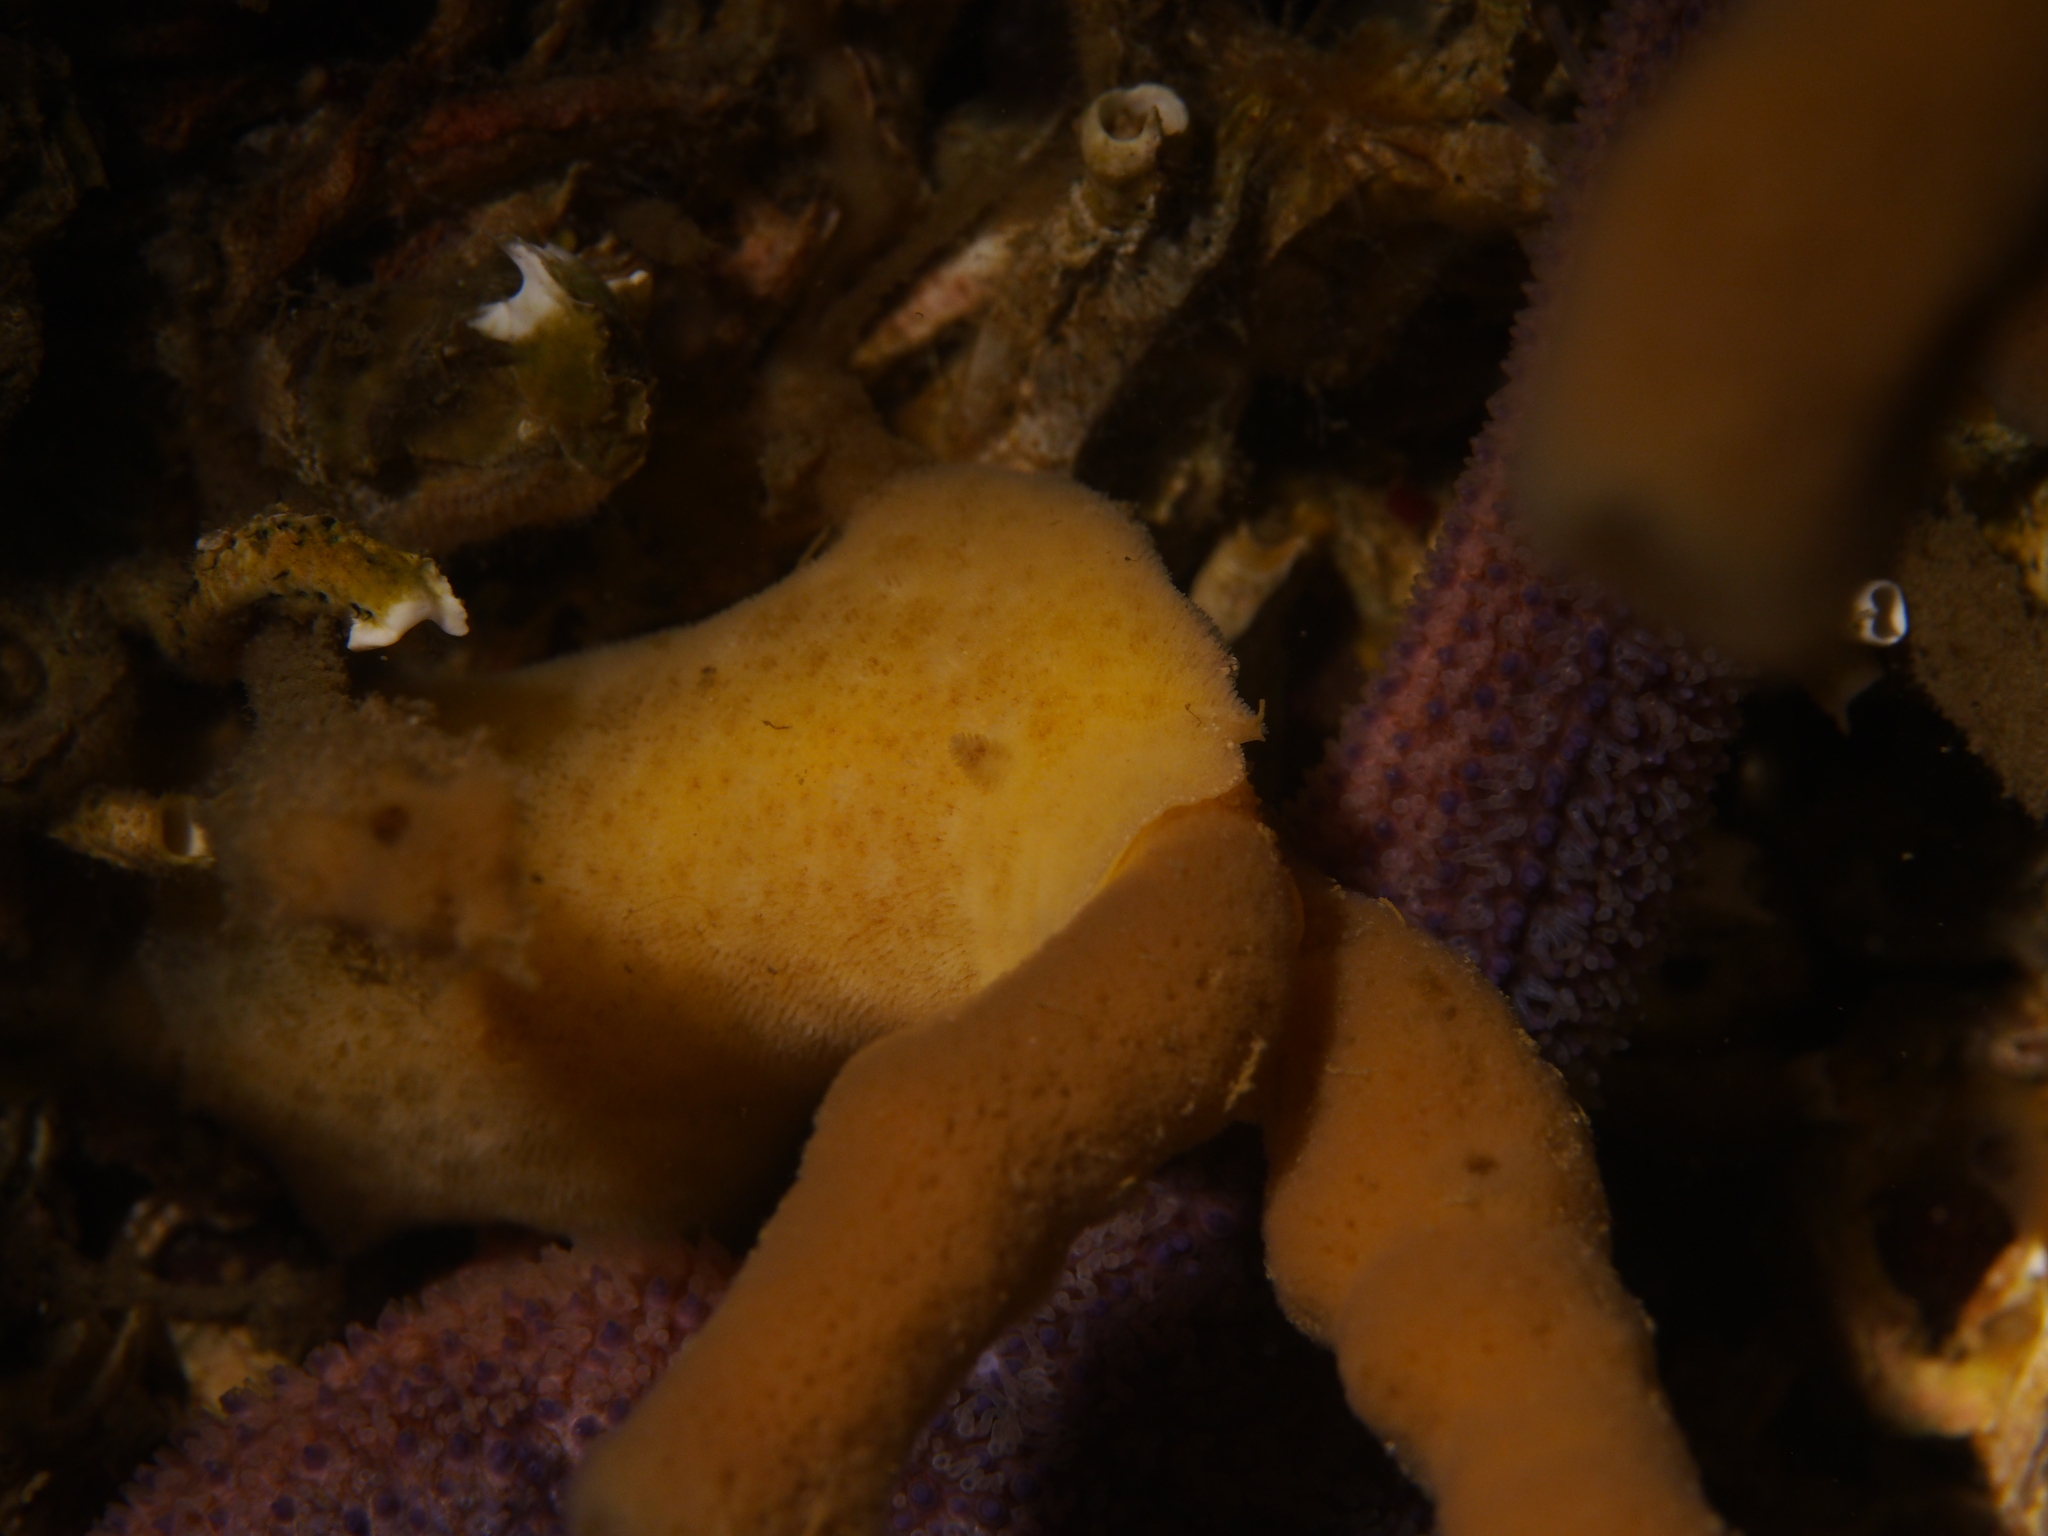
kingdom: Animalia
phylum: Mollusca
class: Gastropoda
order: Nudibranchia
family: Discodorididae
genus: Jorunna
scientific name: Jorunna tomentosa
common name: Grey sea slug
